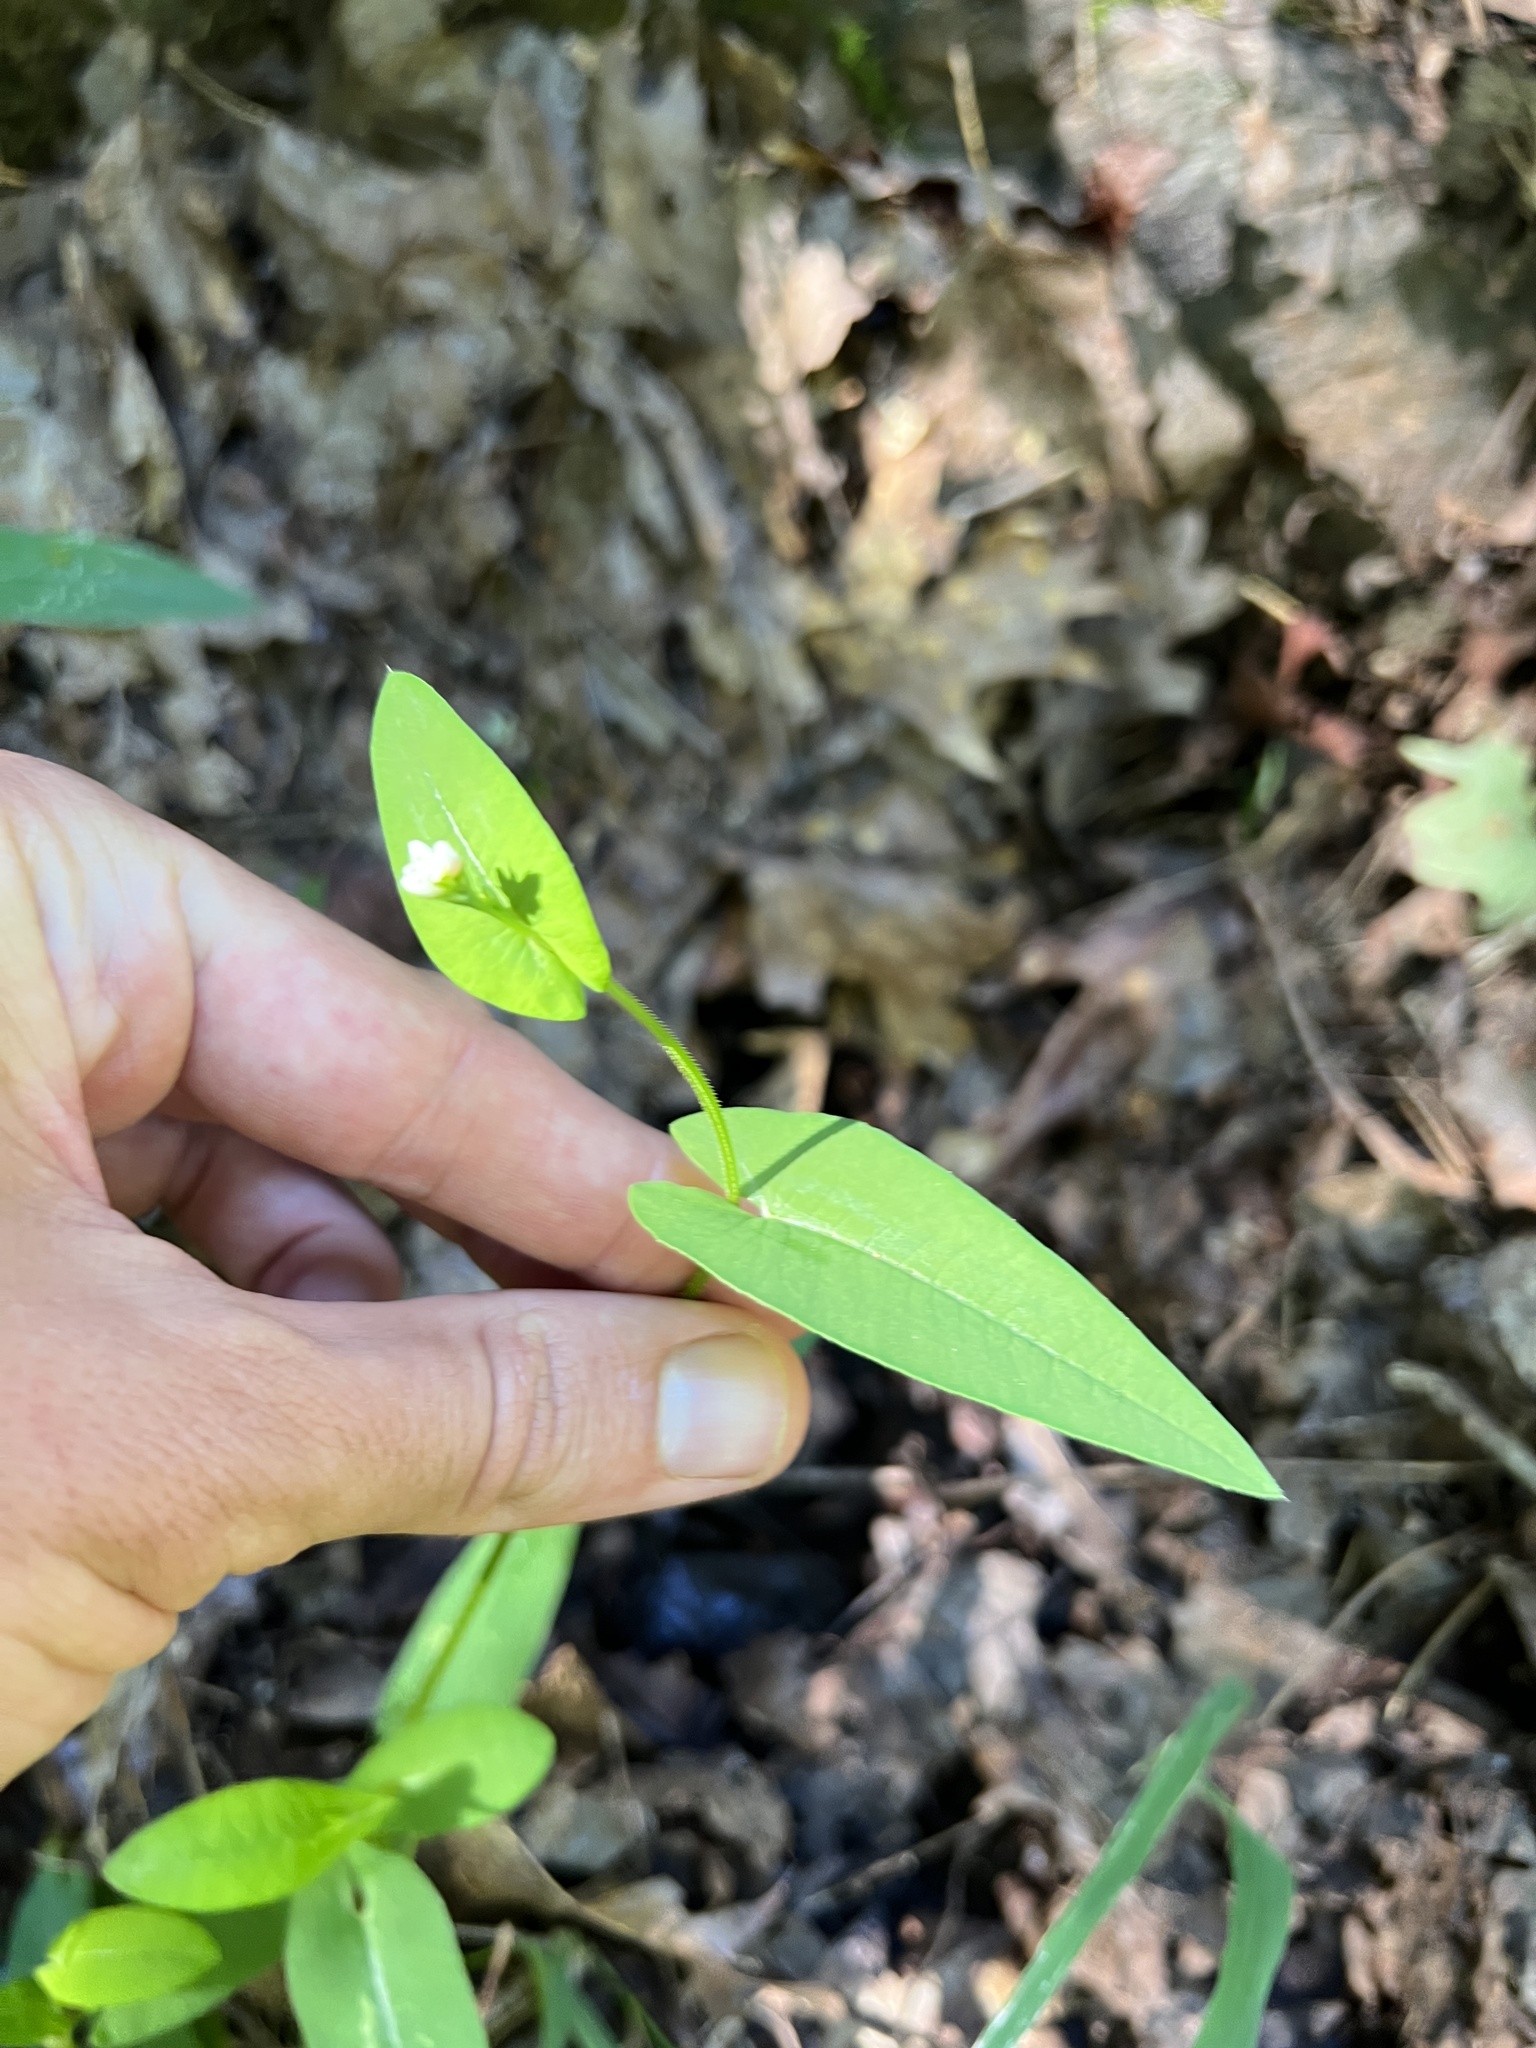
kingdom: Plantae
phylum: Tracheophyta
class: Magnoliopsida
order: Caryophyllales
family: Polygonaceae
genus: Persicaria
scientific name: Persicaria sagittata
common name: American tearthumb
